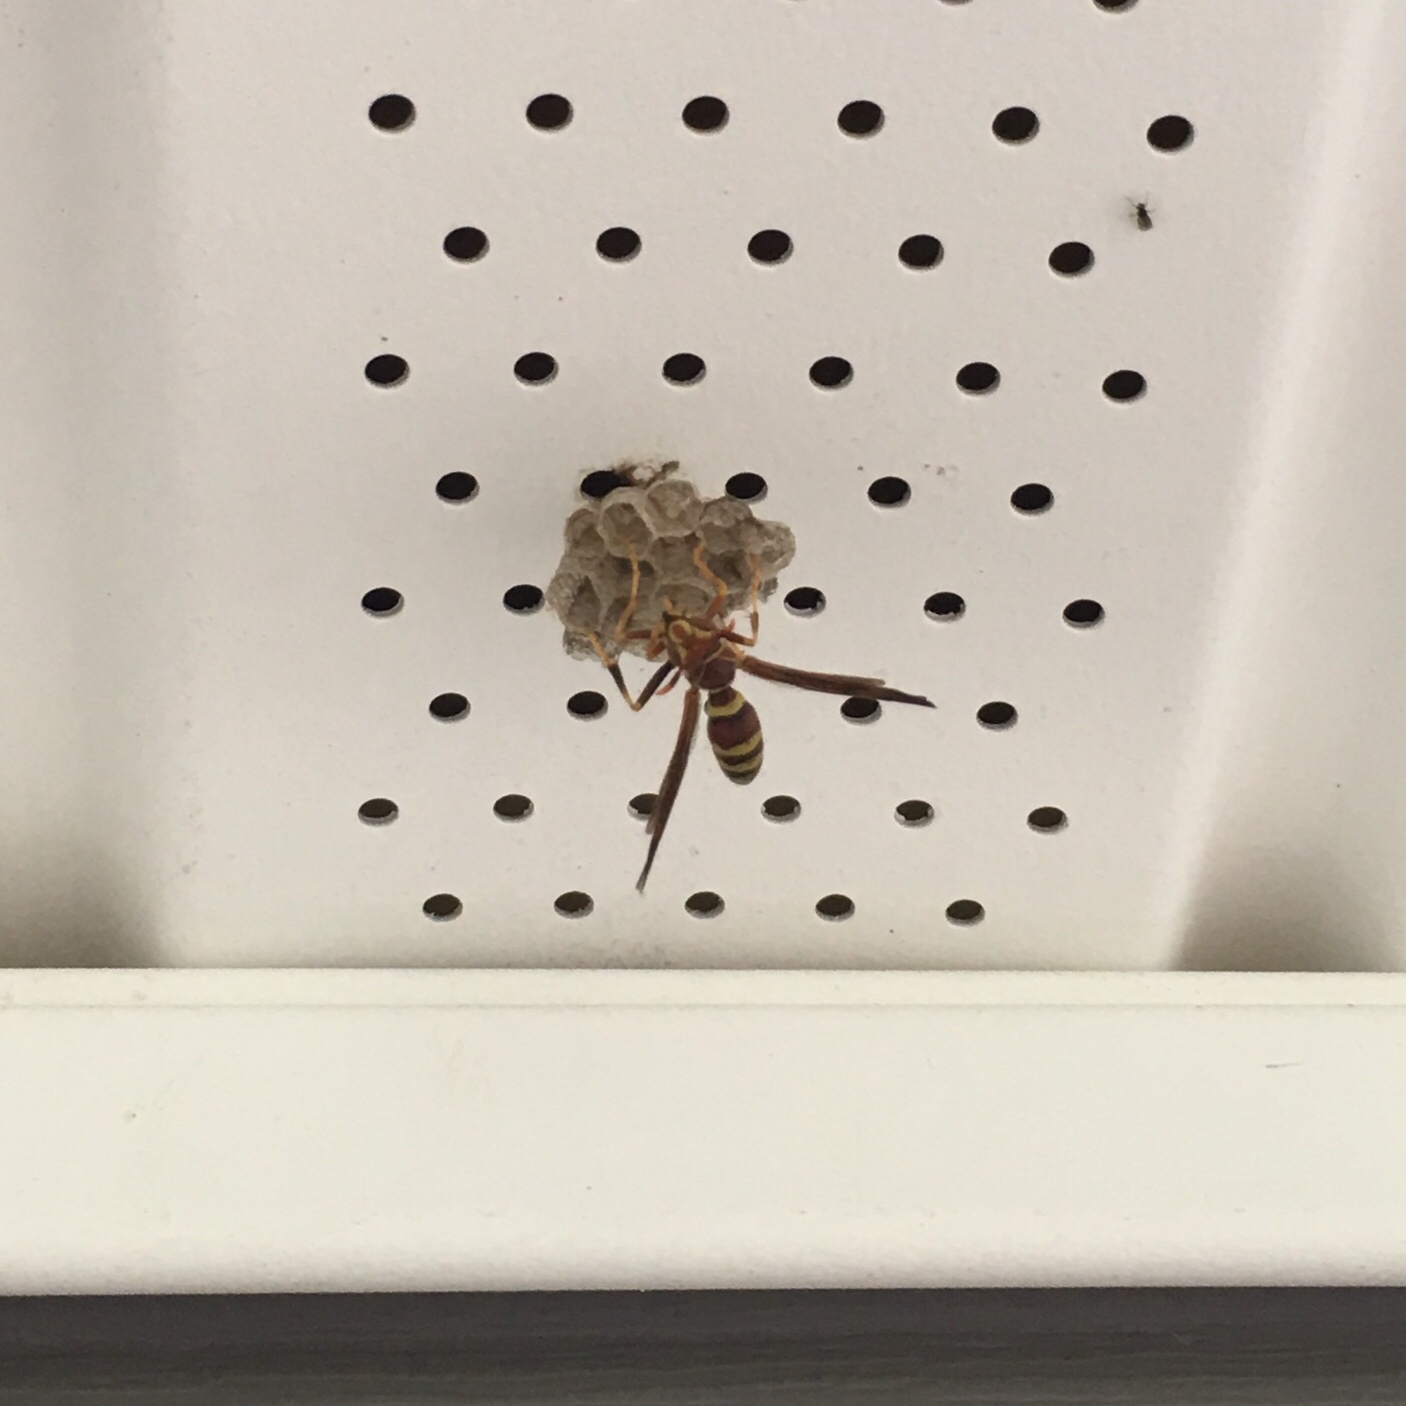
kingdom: Animalia
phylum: Arthropoda
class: Insecta
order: Hymenoptera
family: Eumenidae
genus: Polistes
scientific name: Polistes exclamans
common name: Paper wasp
